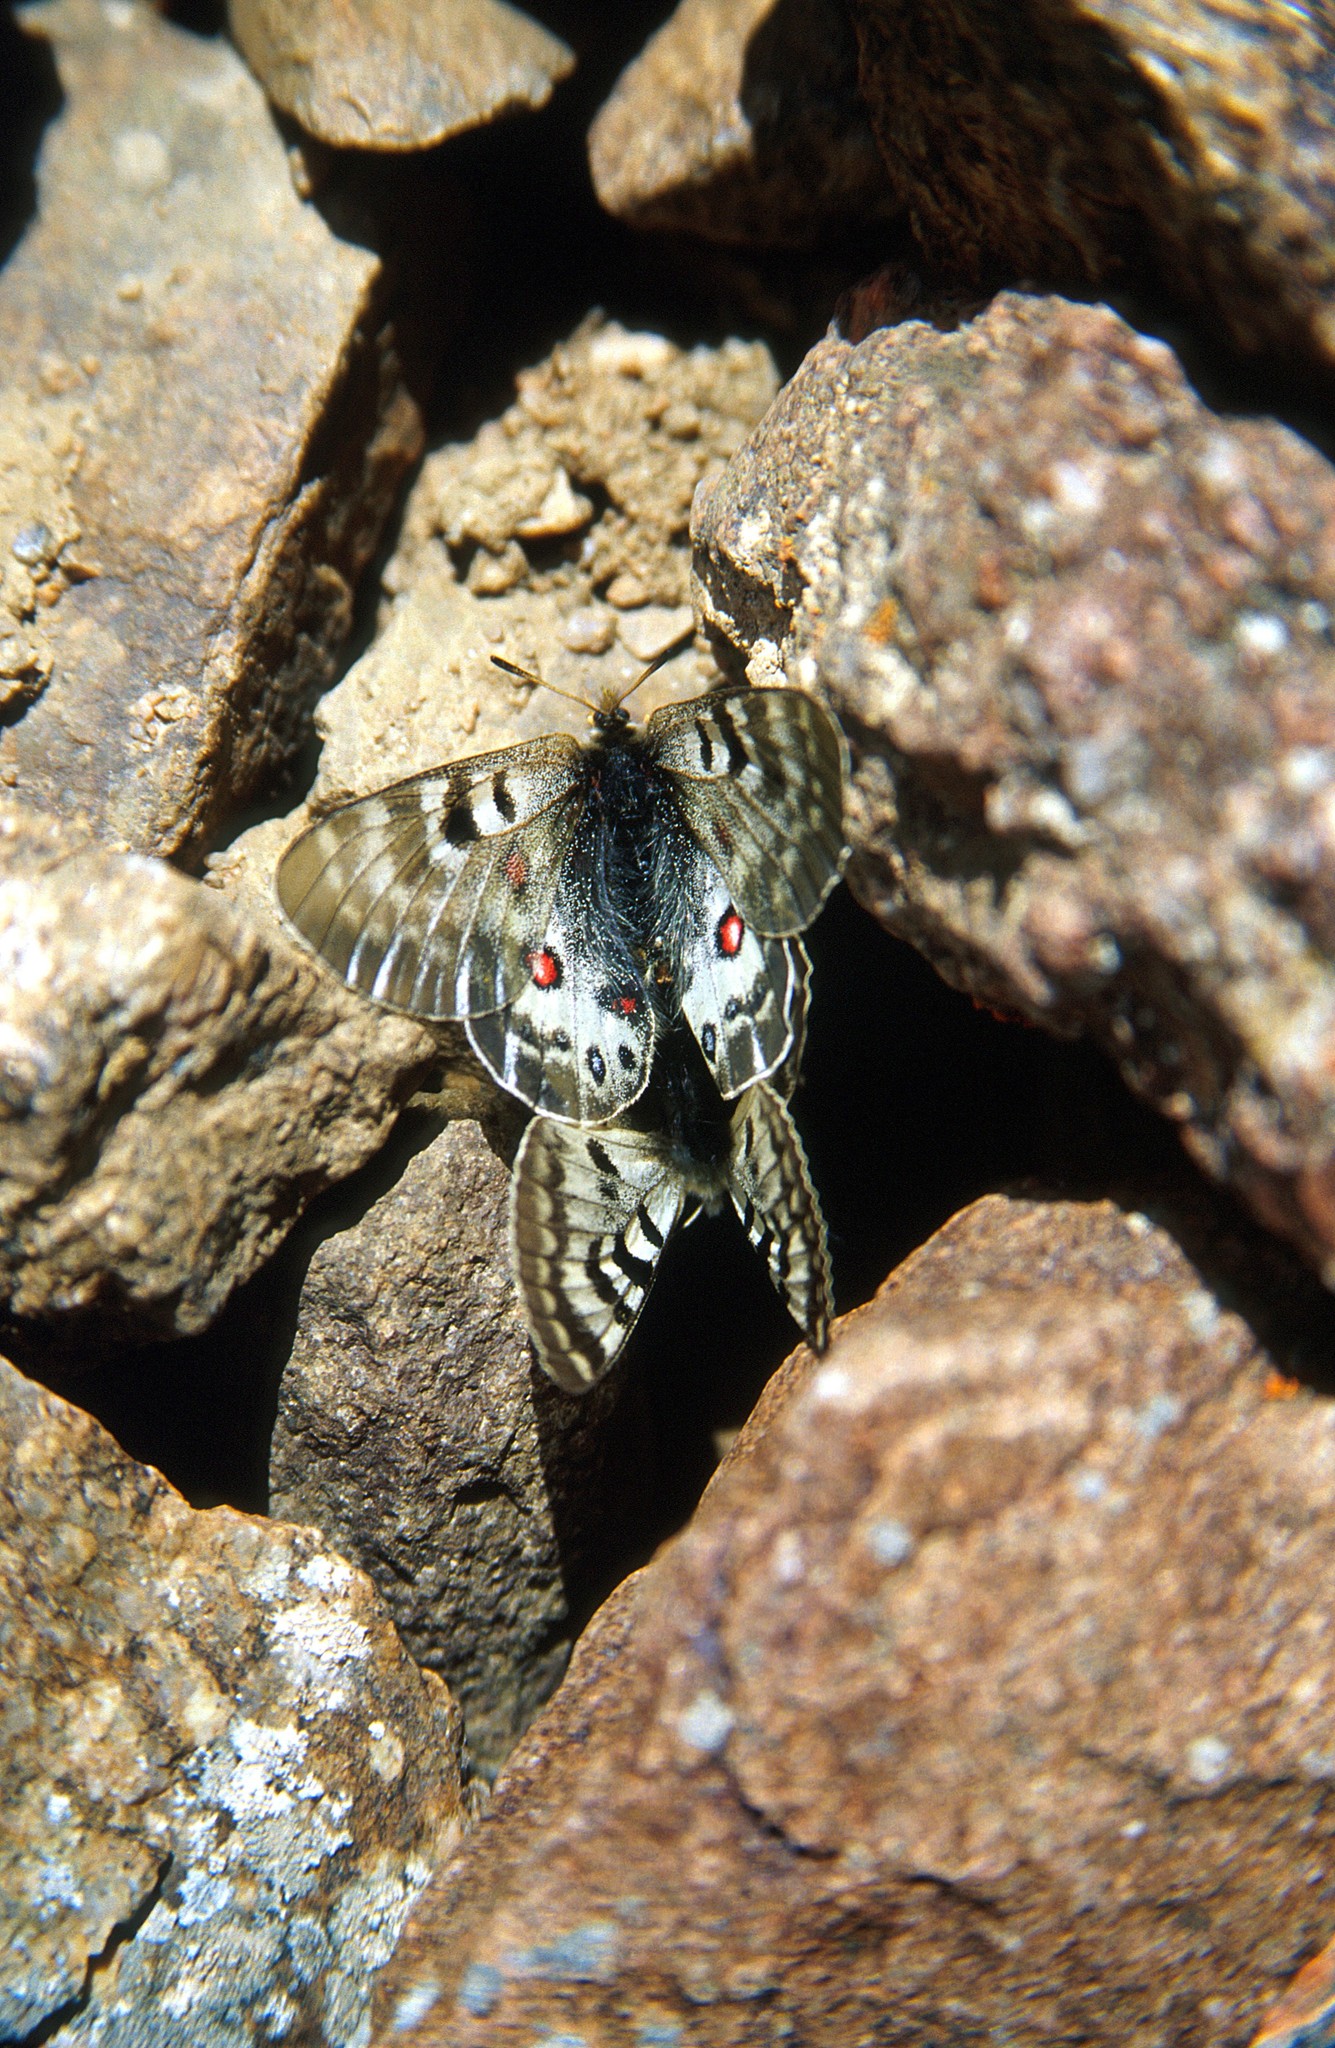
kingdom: Animalia
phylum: Arthropoda
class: Insecta
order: Lepidoptera
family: Papilionidae
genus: Parnassius
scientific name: Parnassius delphius
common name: Banded apollo
